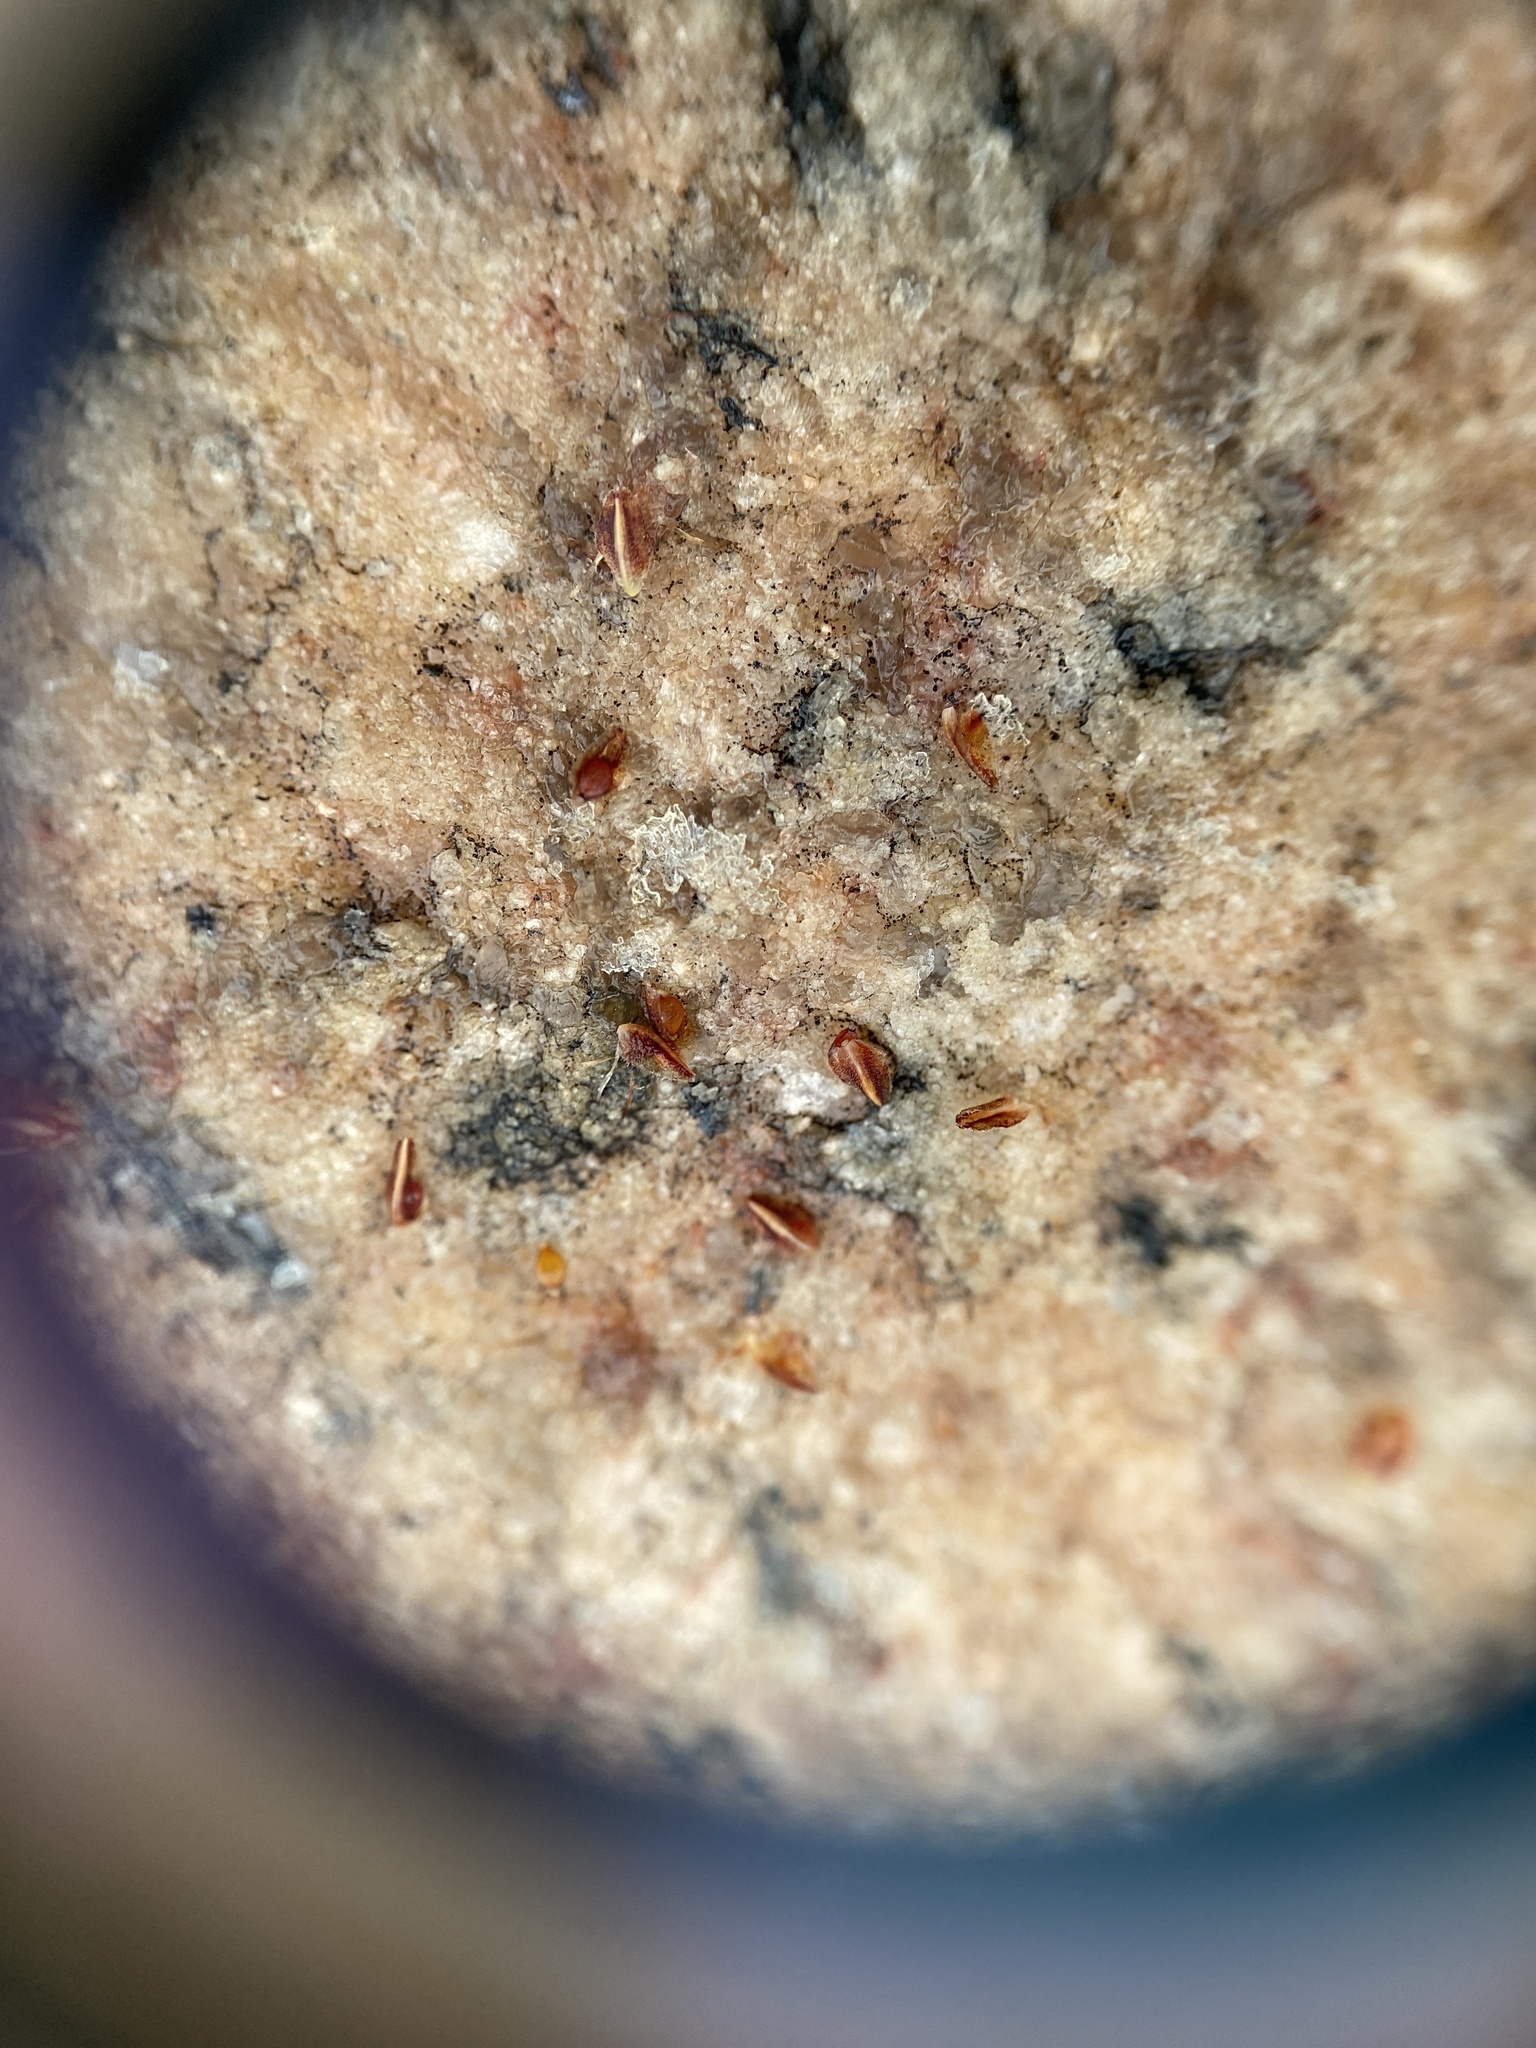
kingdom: Plantae
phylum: Tracheophyta
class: Liliopsida
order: Poales
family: Cyperaceae
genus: Bulbostylis
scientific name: Bulbostylis capillaris
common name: Densetuft hairsedge
